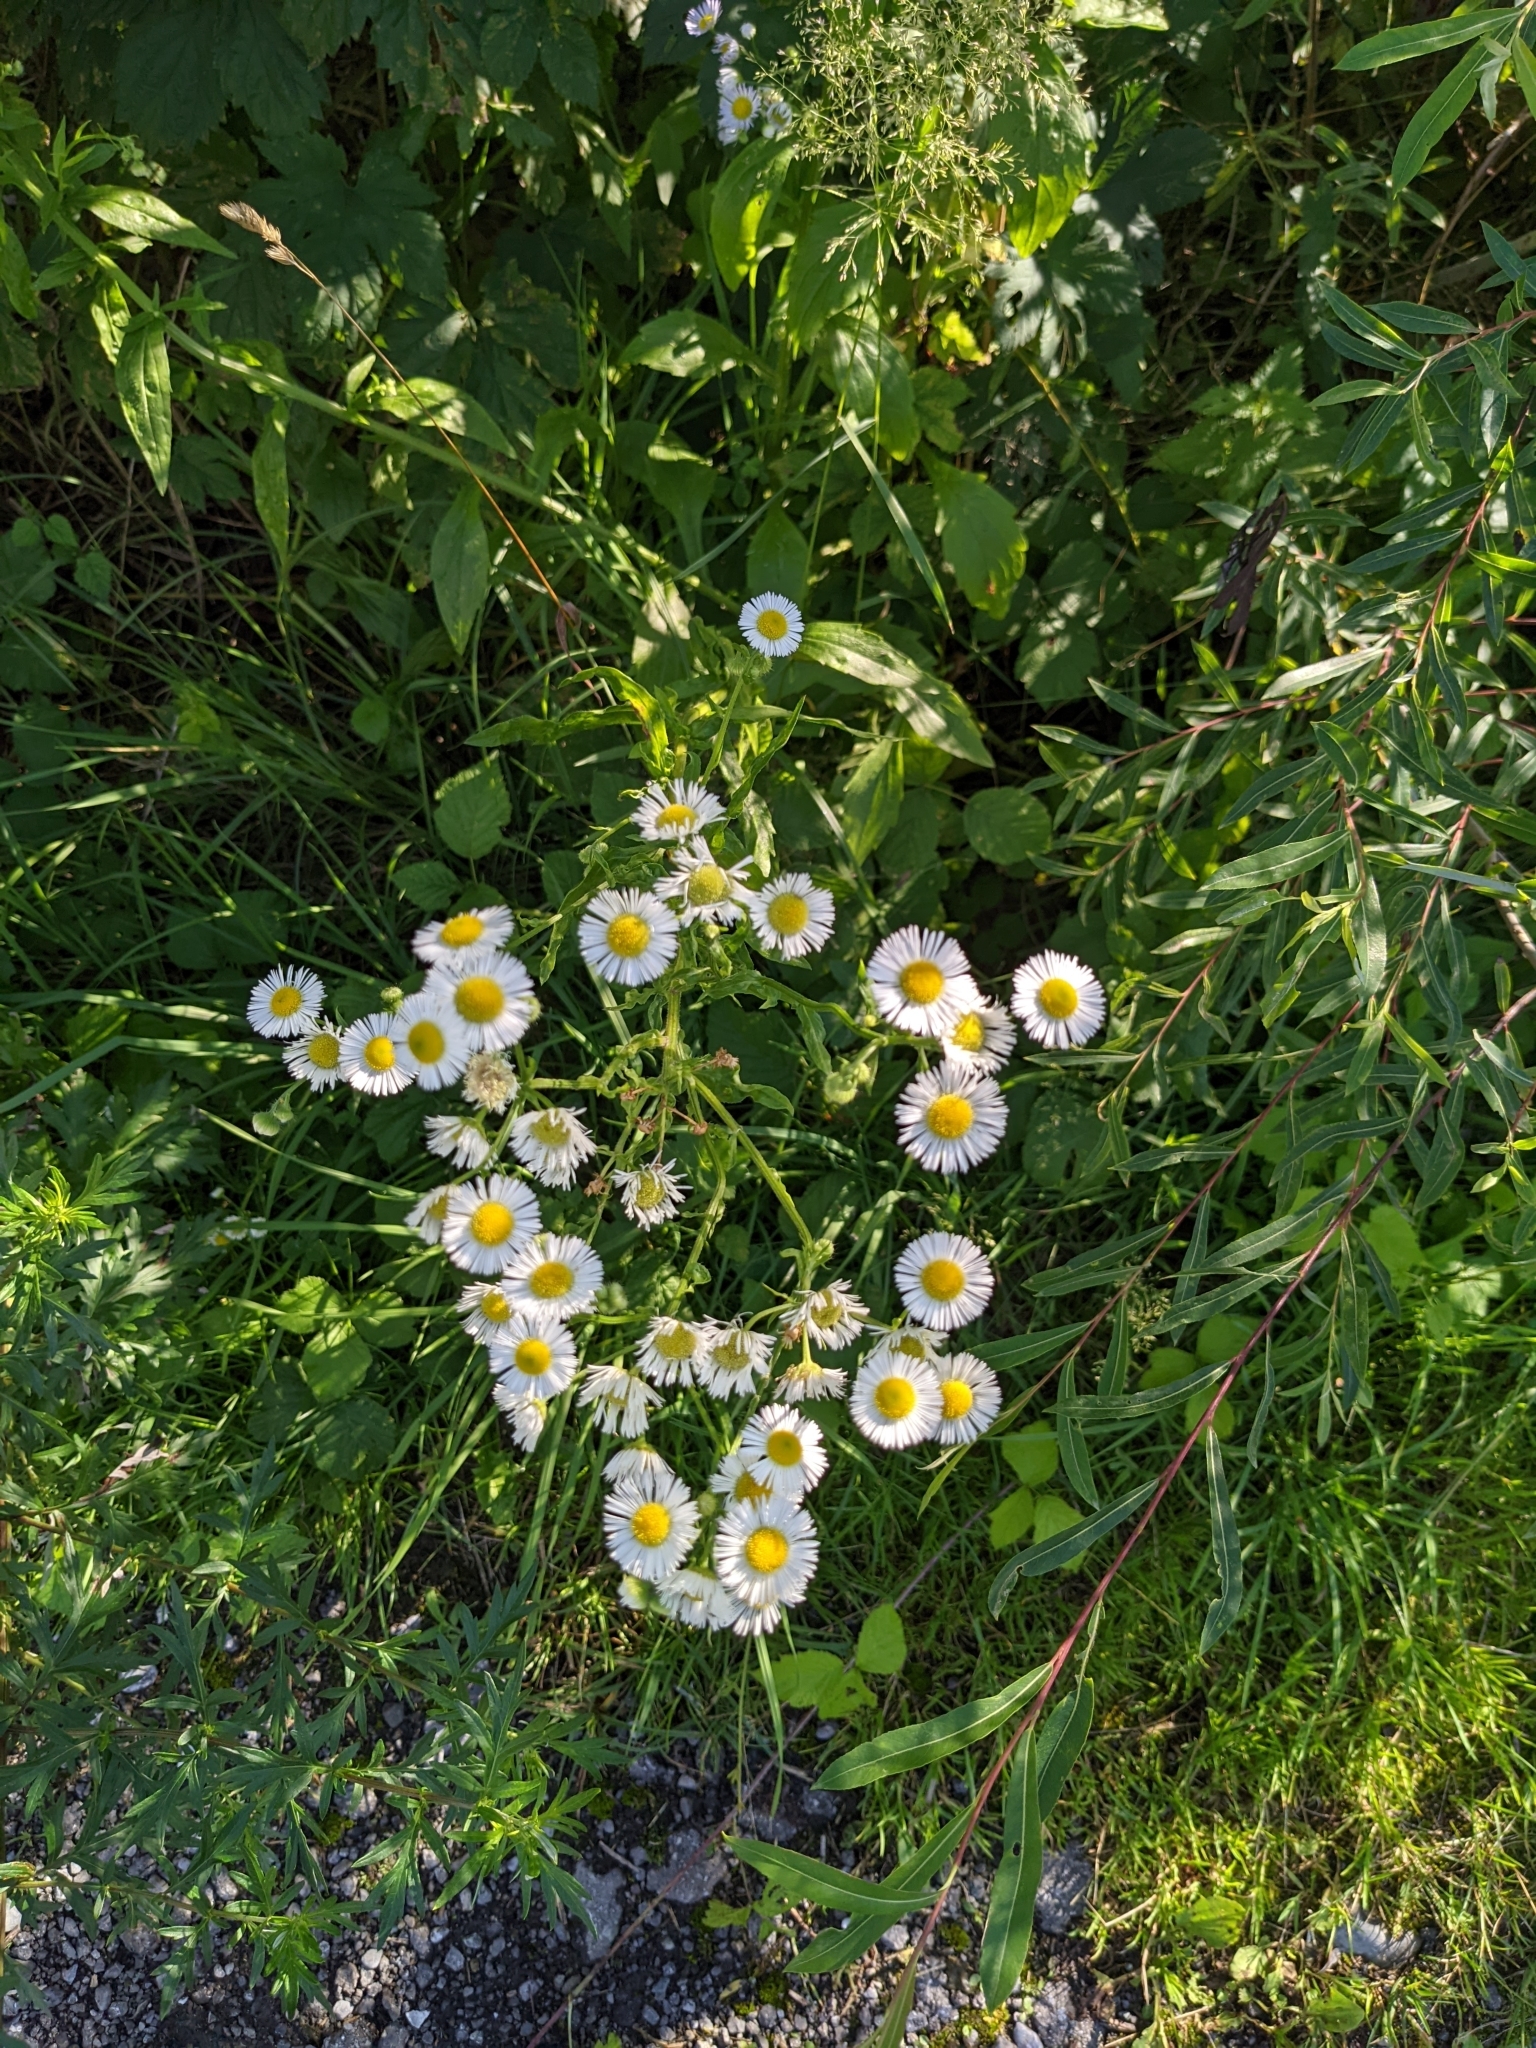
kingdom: Plantae
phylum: Tracheophyta
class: Magnoliopsida
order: Asterales
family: Asteraceae
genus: Erigeron
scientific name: Erigeron annuus
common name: Tall fleabane
